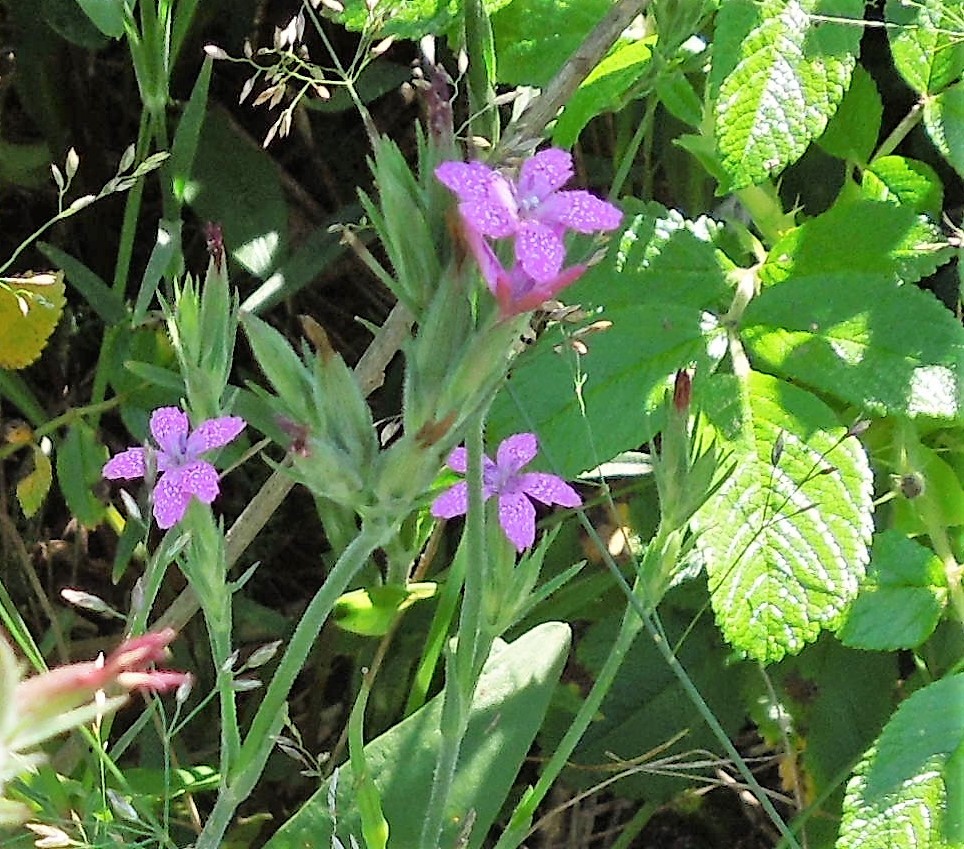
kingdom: Plantae
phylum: Tracheophyta
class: Magnoliopsida
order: Caryophyllales
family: Caryophyllaceae
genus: Dianthus
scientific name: Dianthus armeria
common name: Deptford pink
